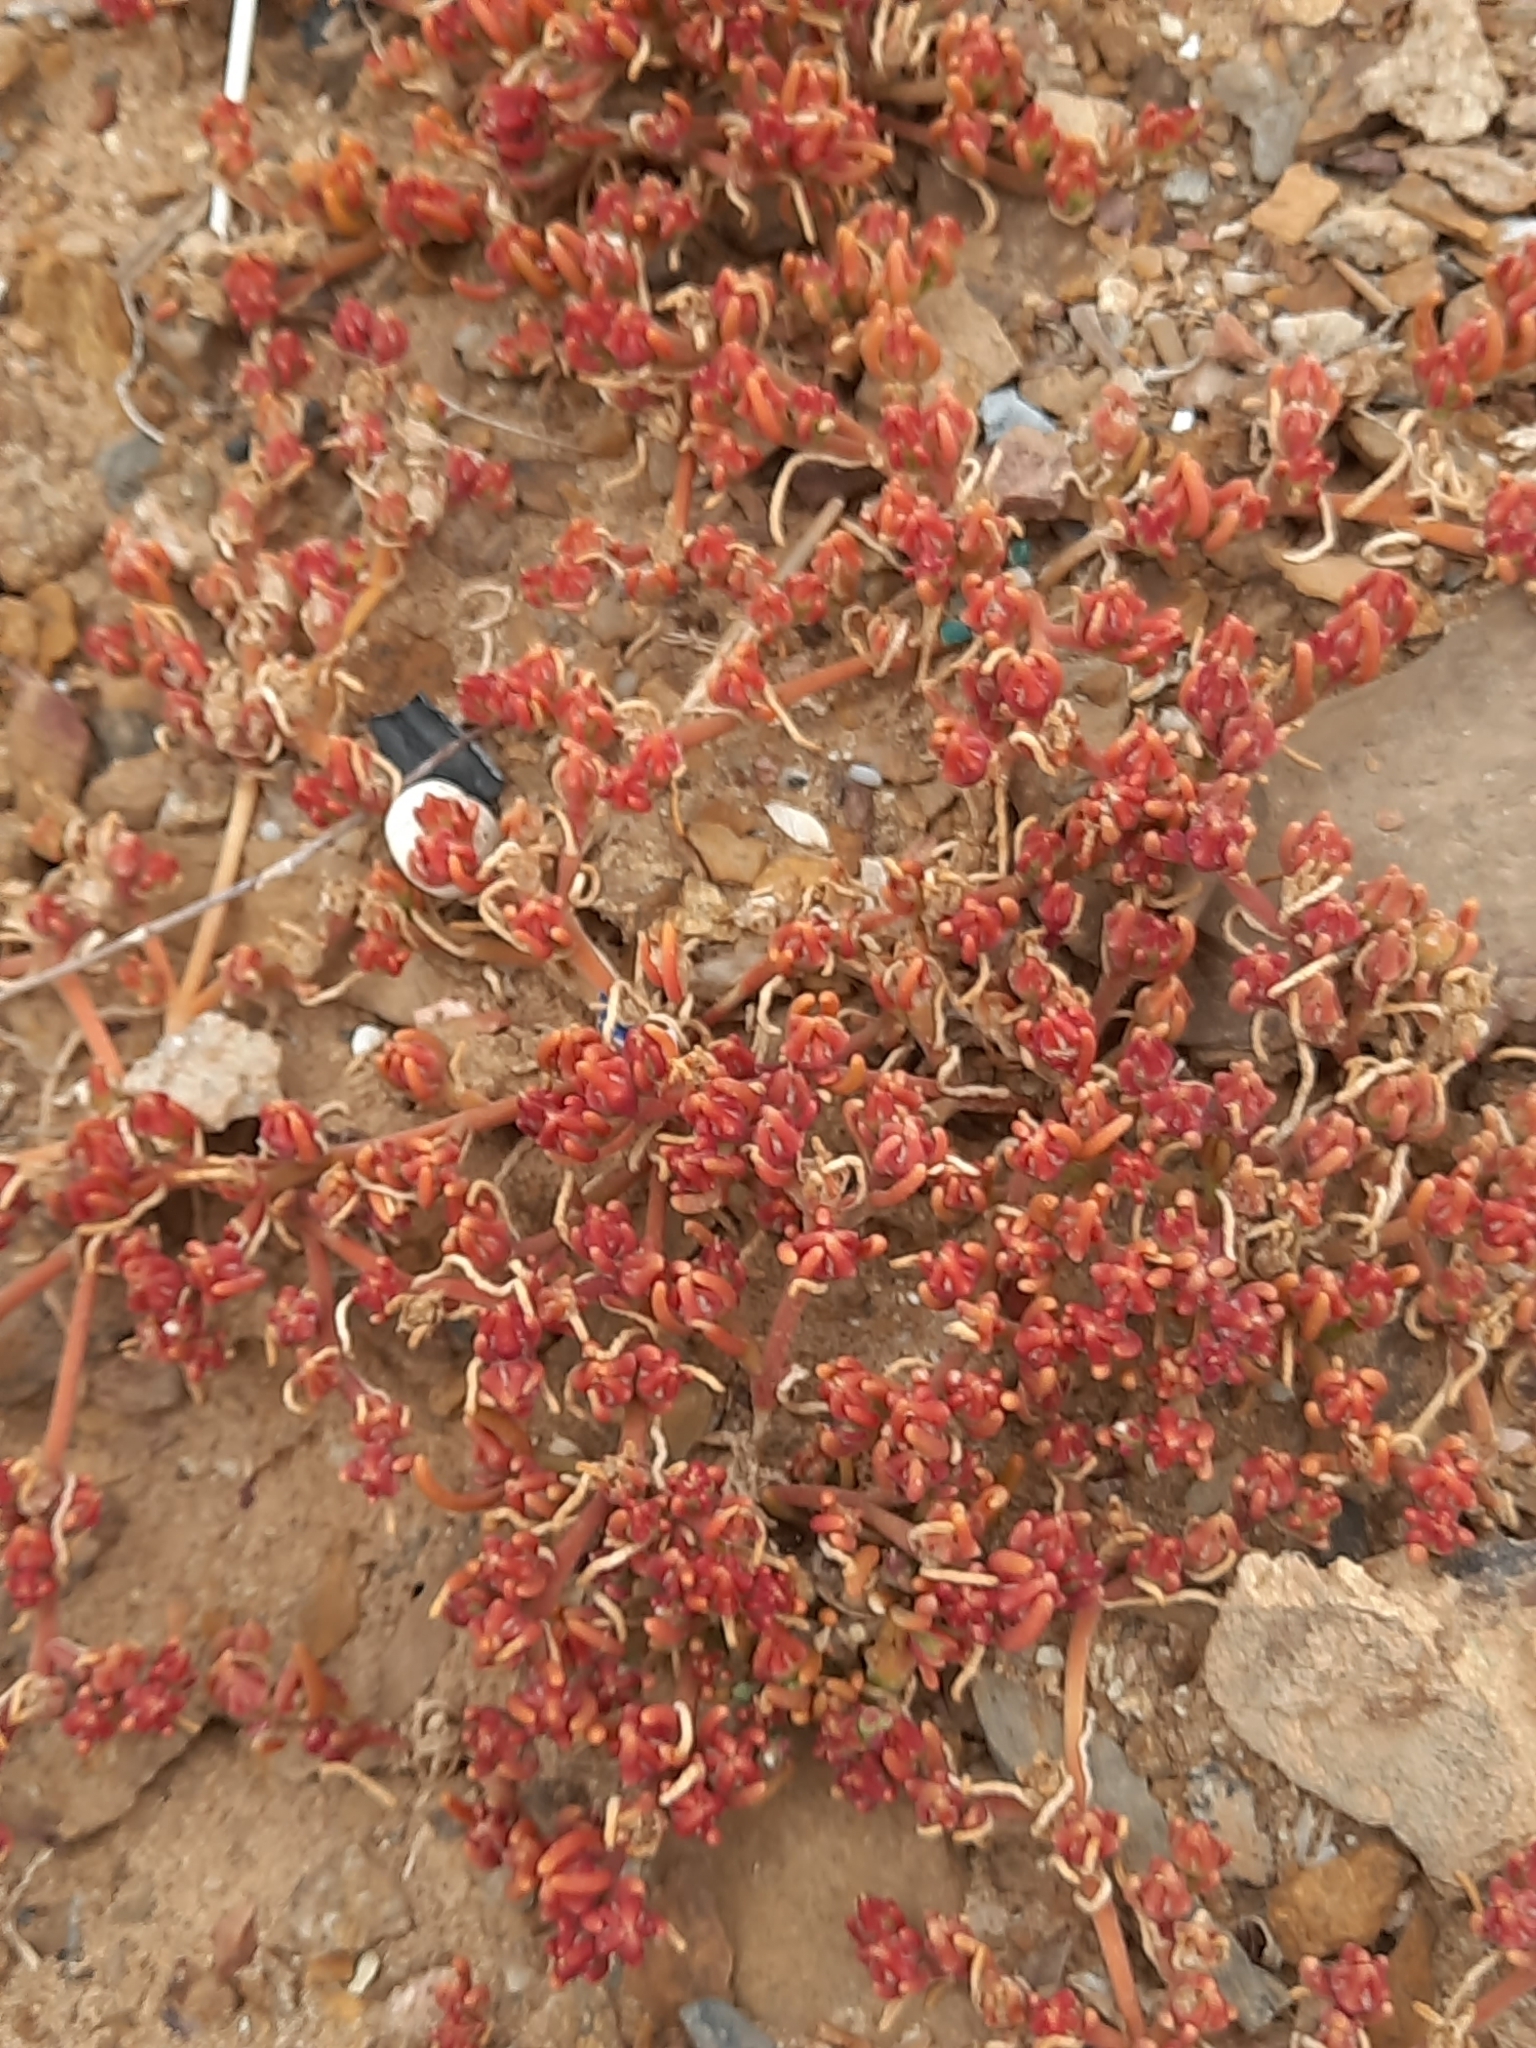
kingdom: Plantae
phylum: Tracheophyta
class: Magnoliopsida
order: Caryophyllales
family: Aizoaceae
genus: Mesembryanthemum
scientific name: Mesembryanthemum nodiflorum
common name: Slenderleaf iceplant
